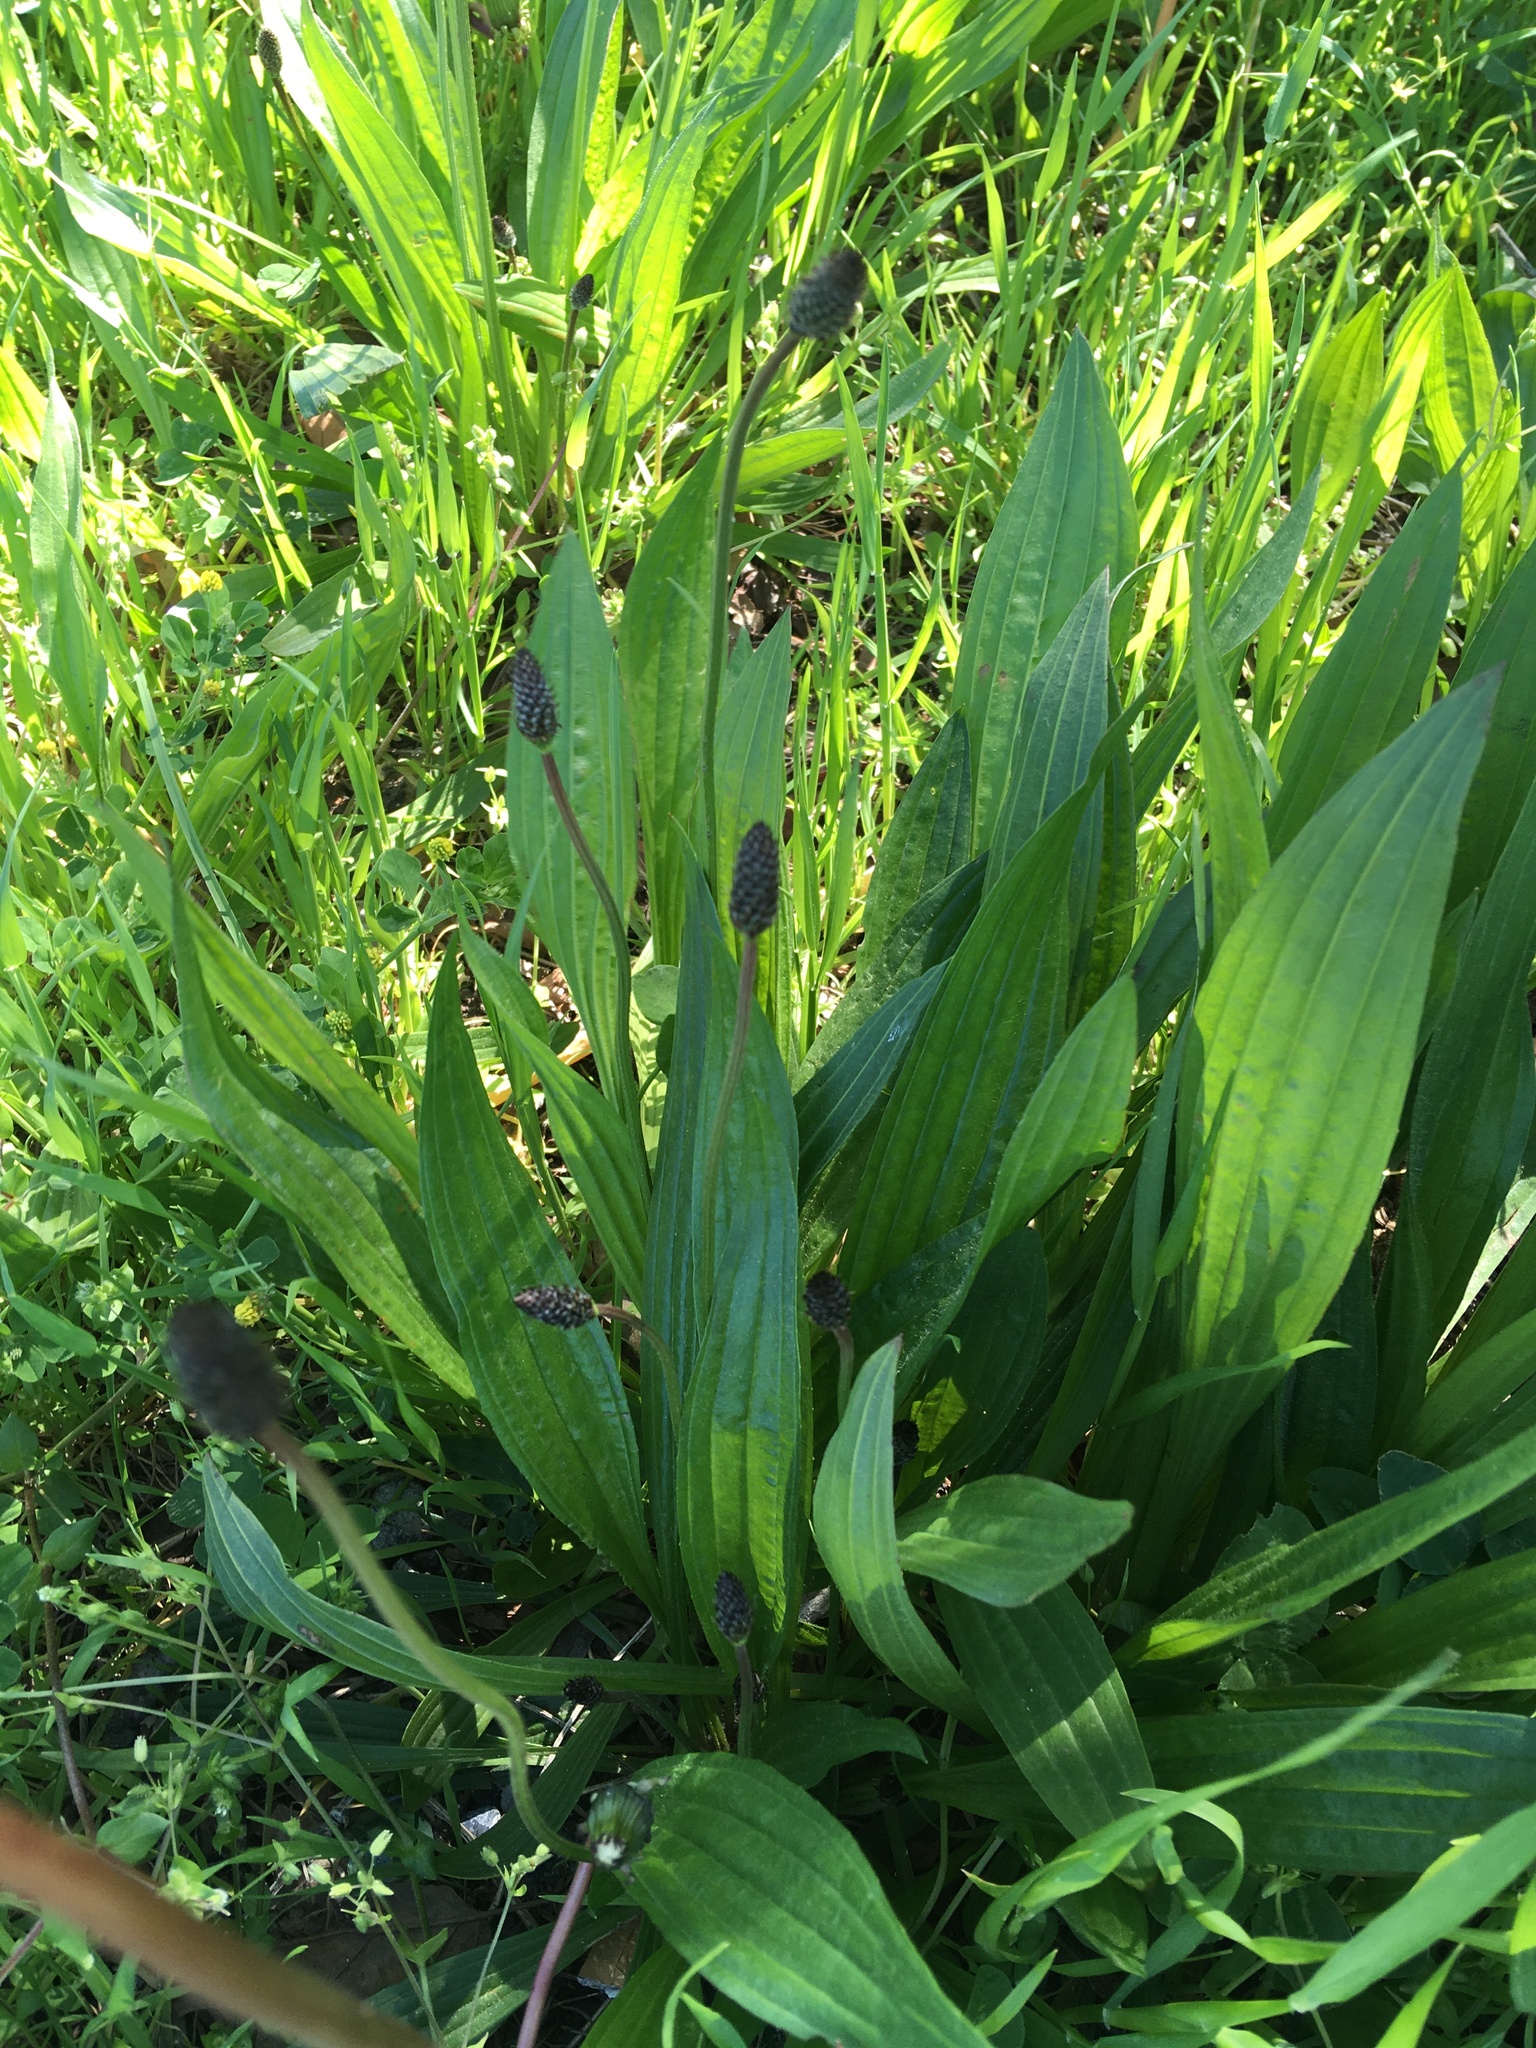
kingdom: Plantae
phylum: Tracheophyta
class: Magnoliopsida
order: Lamiales
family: Plantaginaceae
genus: Plantago
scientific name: Plantago lanceolata
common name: Ribwort plantain
